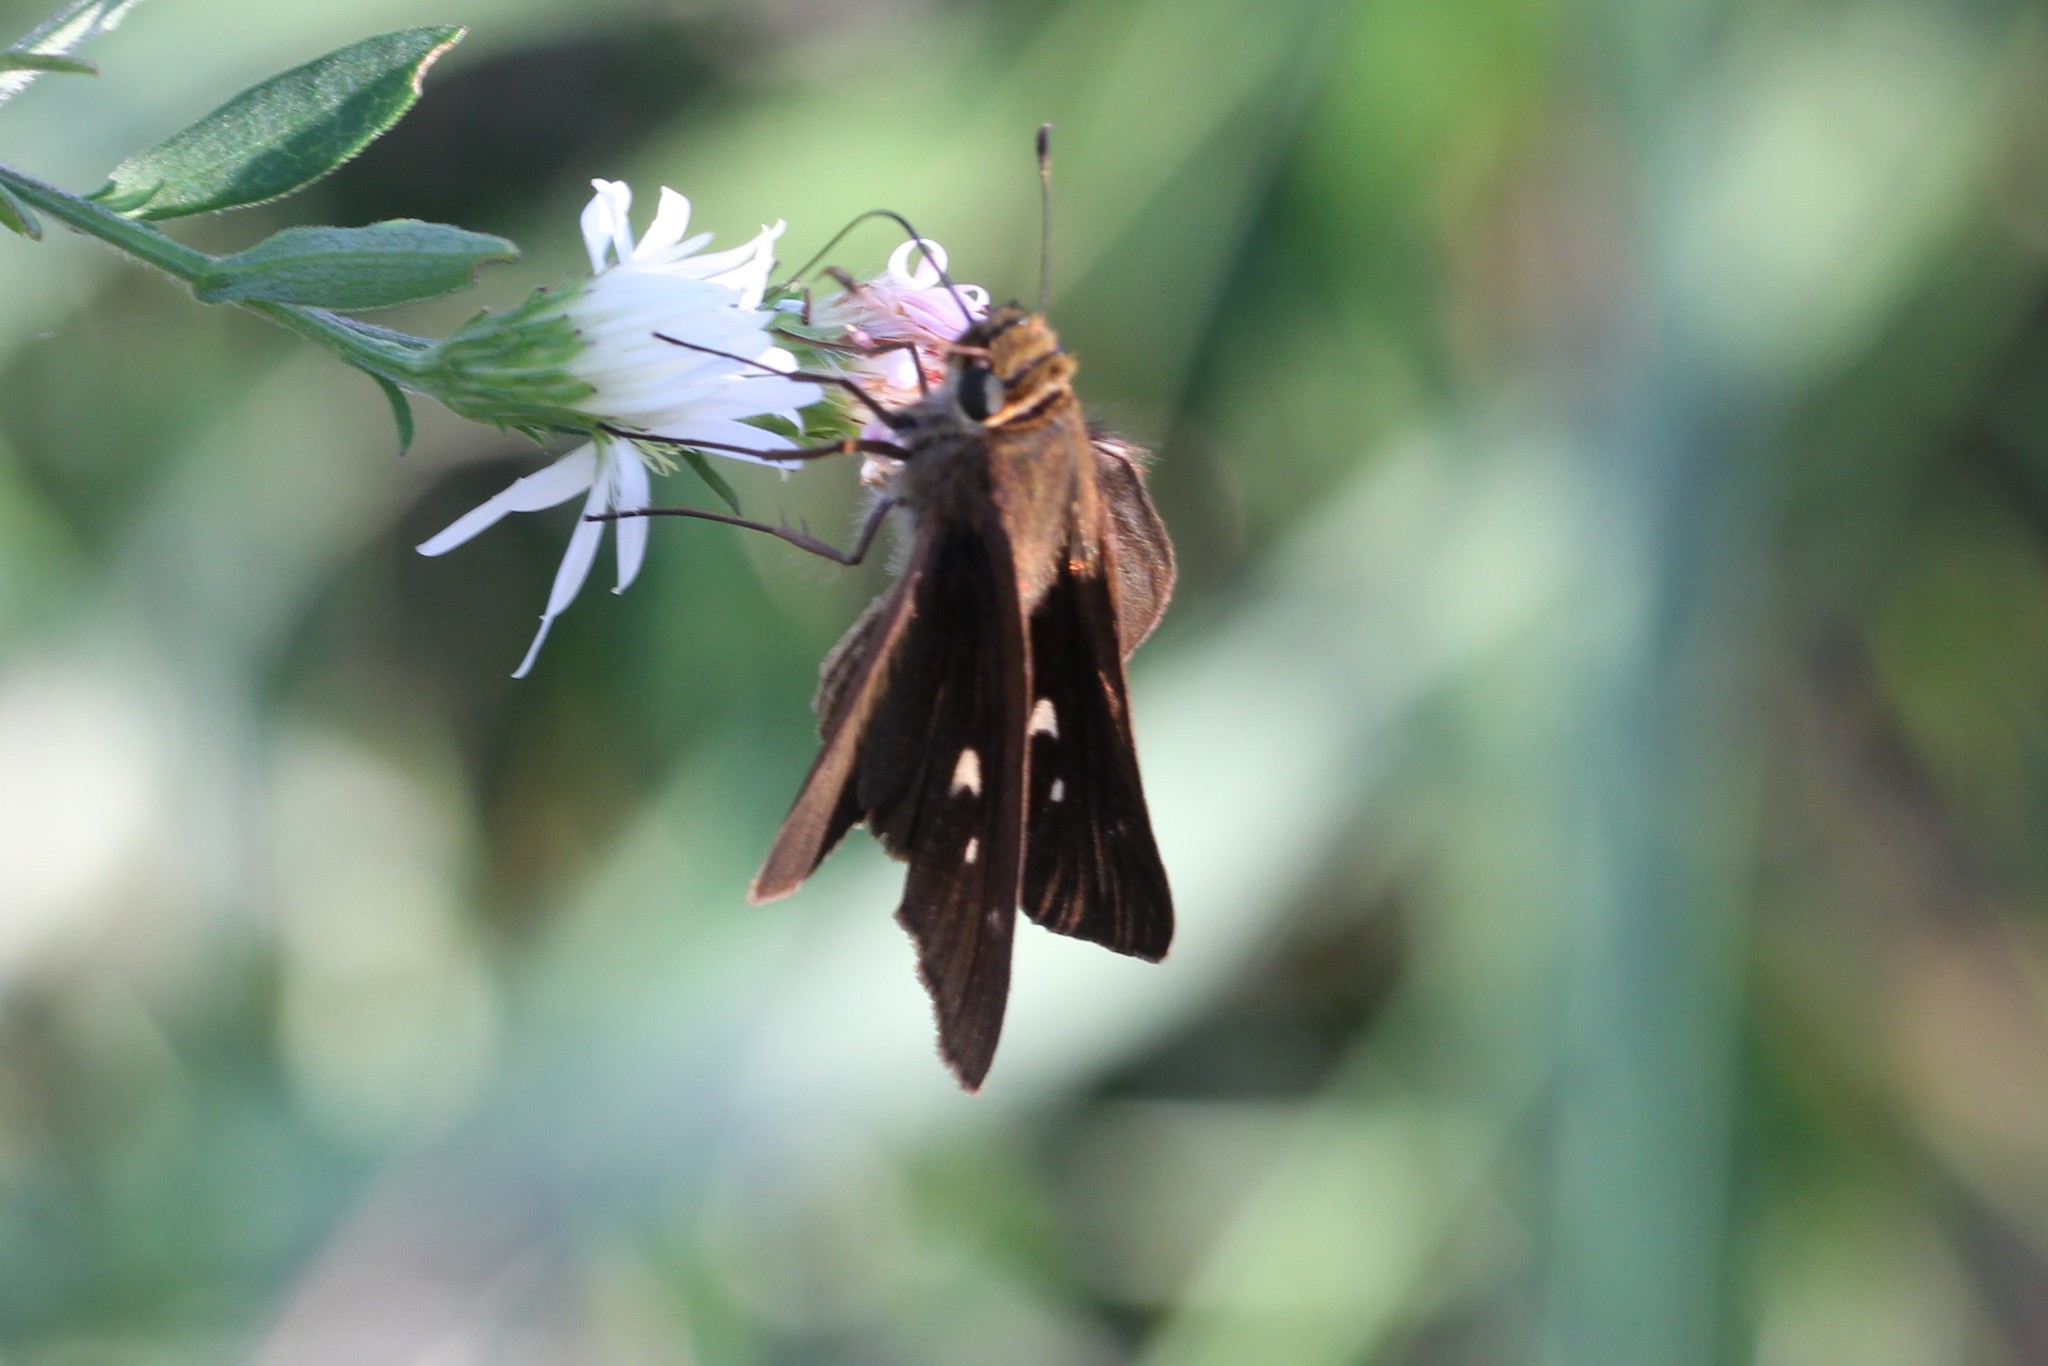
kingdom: Animalia
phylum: Arthropoda
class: Insecta
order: Lepidoptera
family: Hesperiidae
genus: Panoquina
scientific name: Panoquina ocola
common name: Ocola skipper
